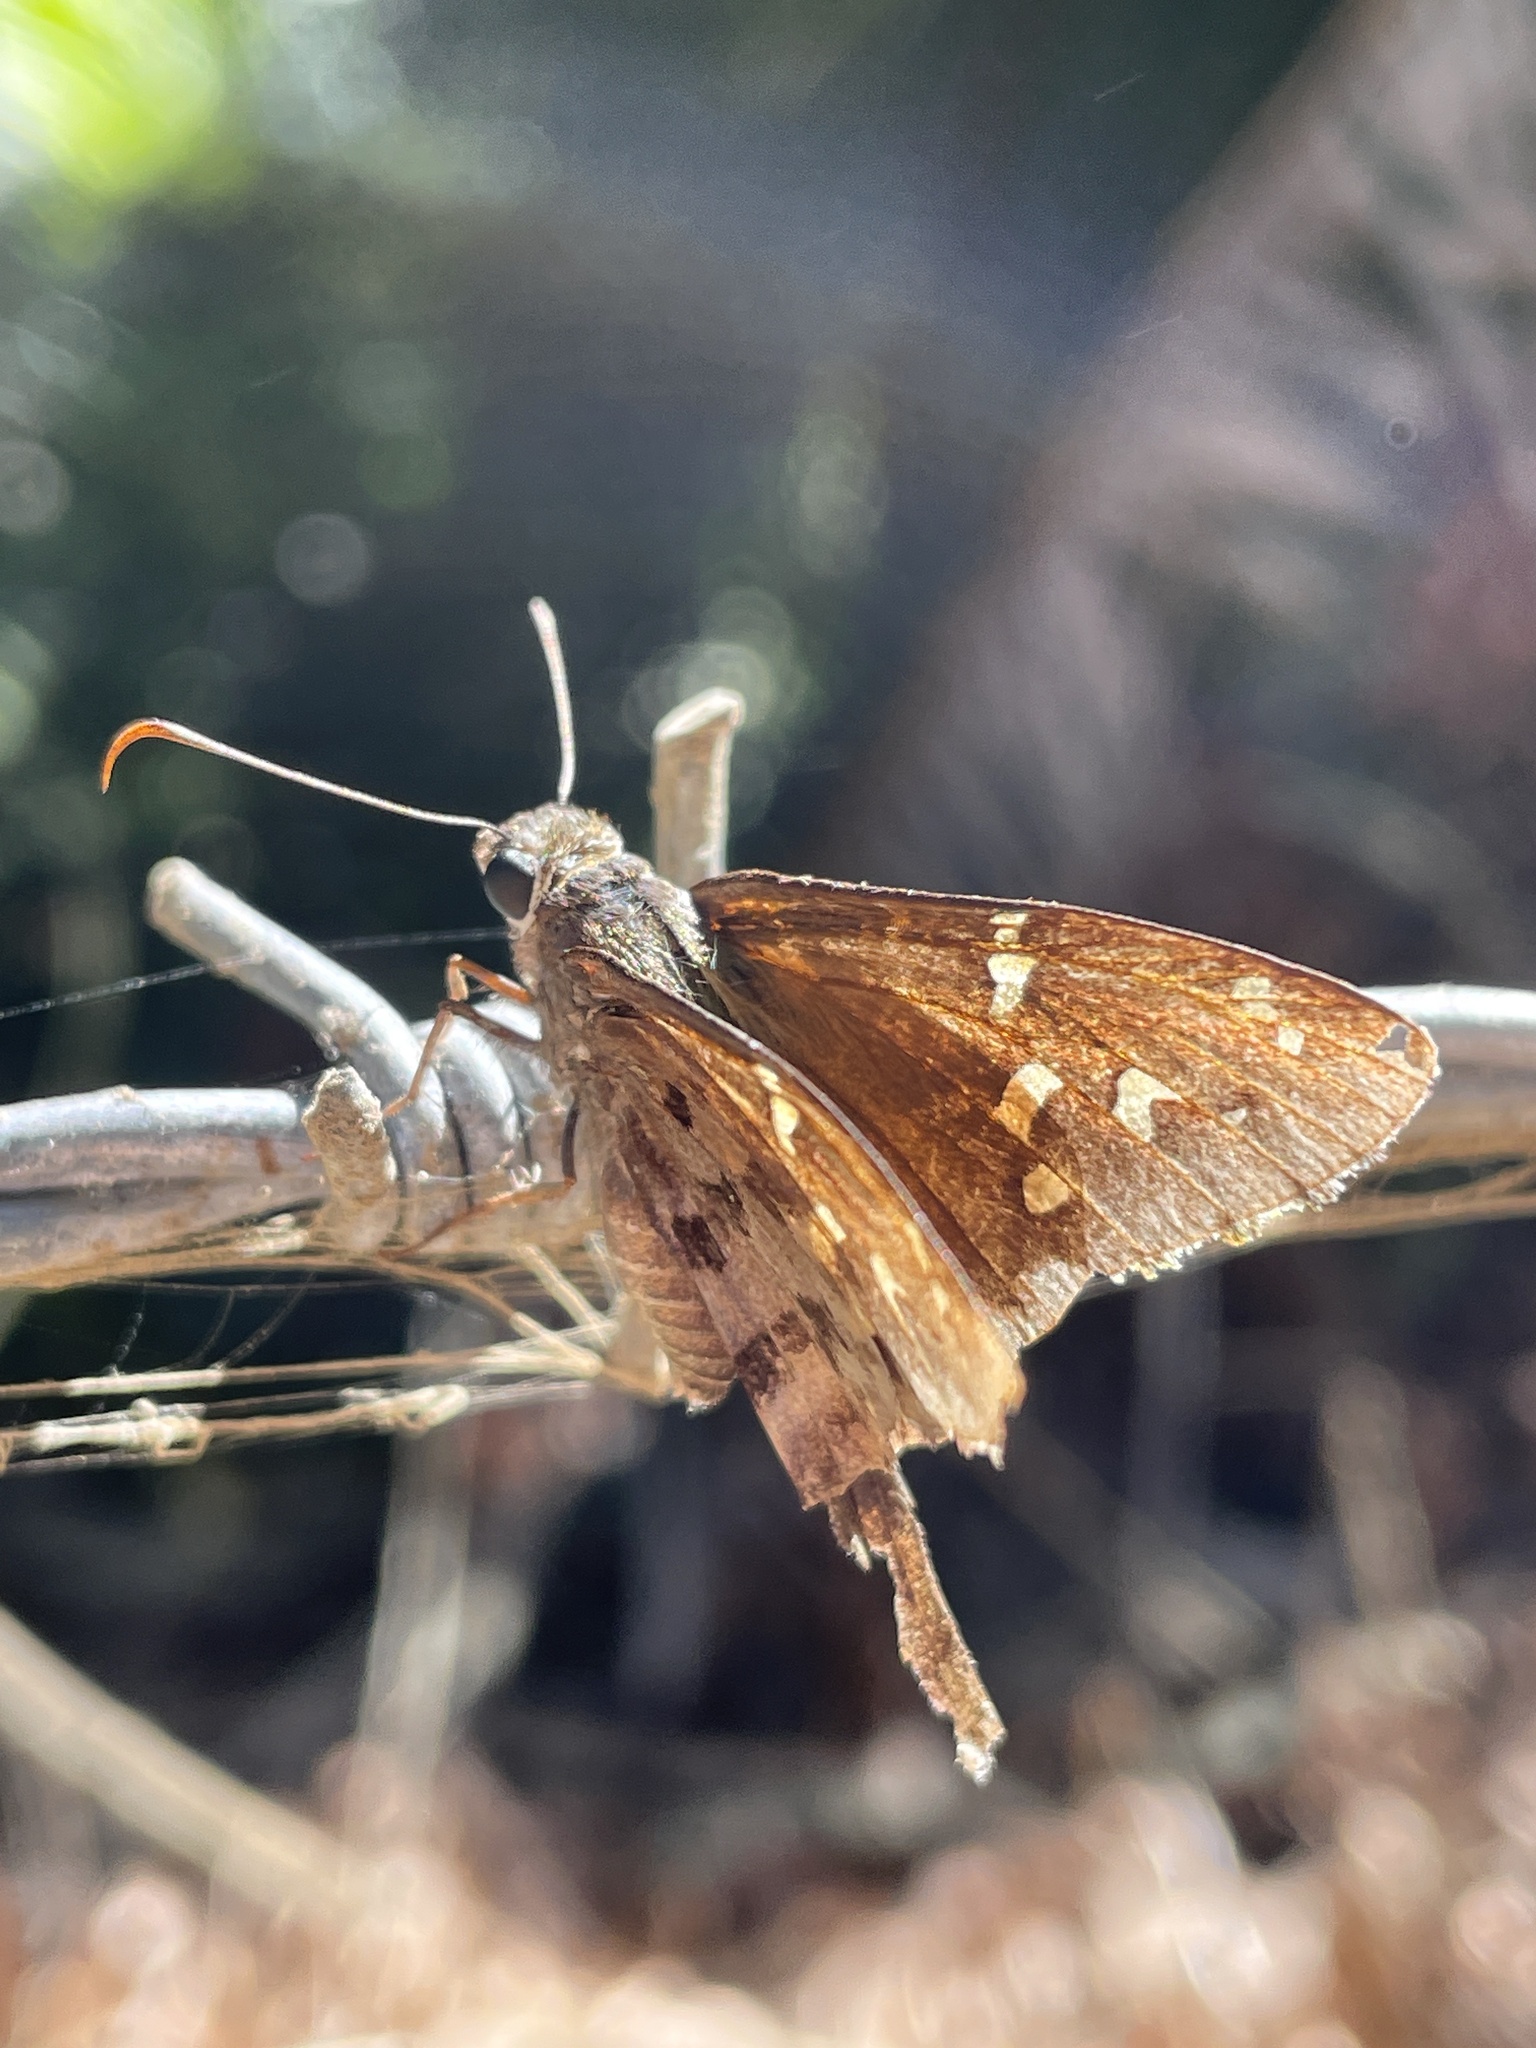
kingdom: Animalia
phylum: Arthropoda
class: Insecta
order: Lepidoptera
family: Hesperiidae
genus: Thorybes
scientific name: Thorybes
